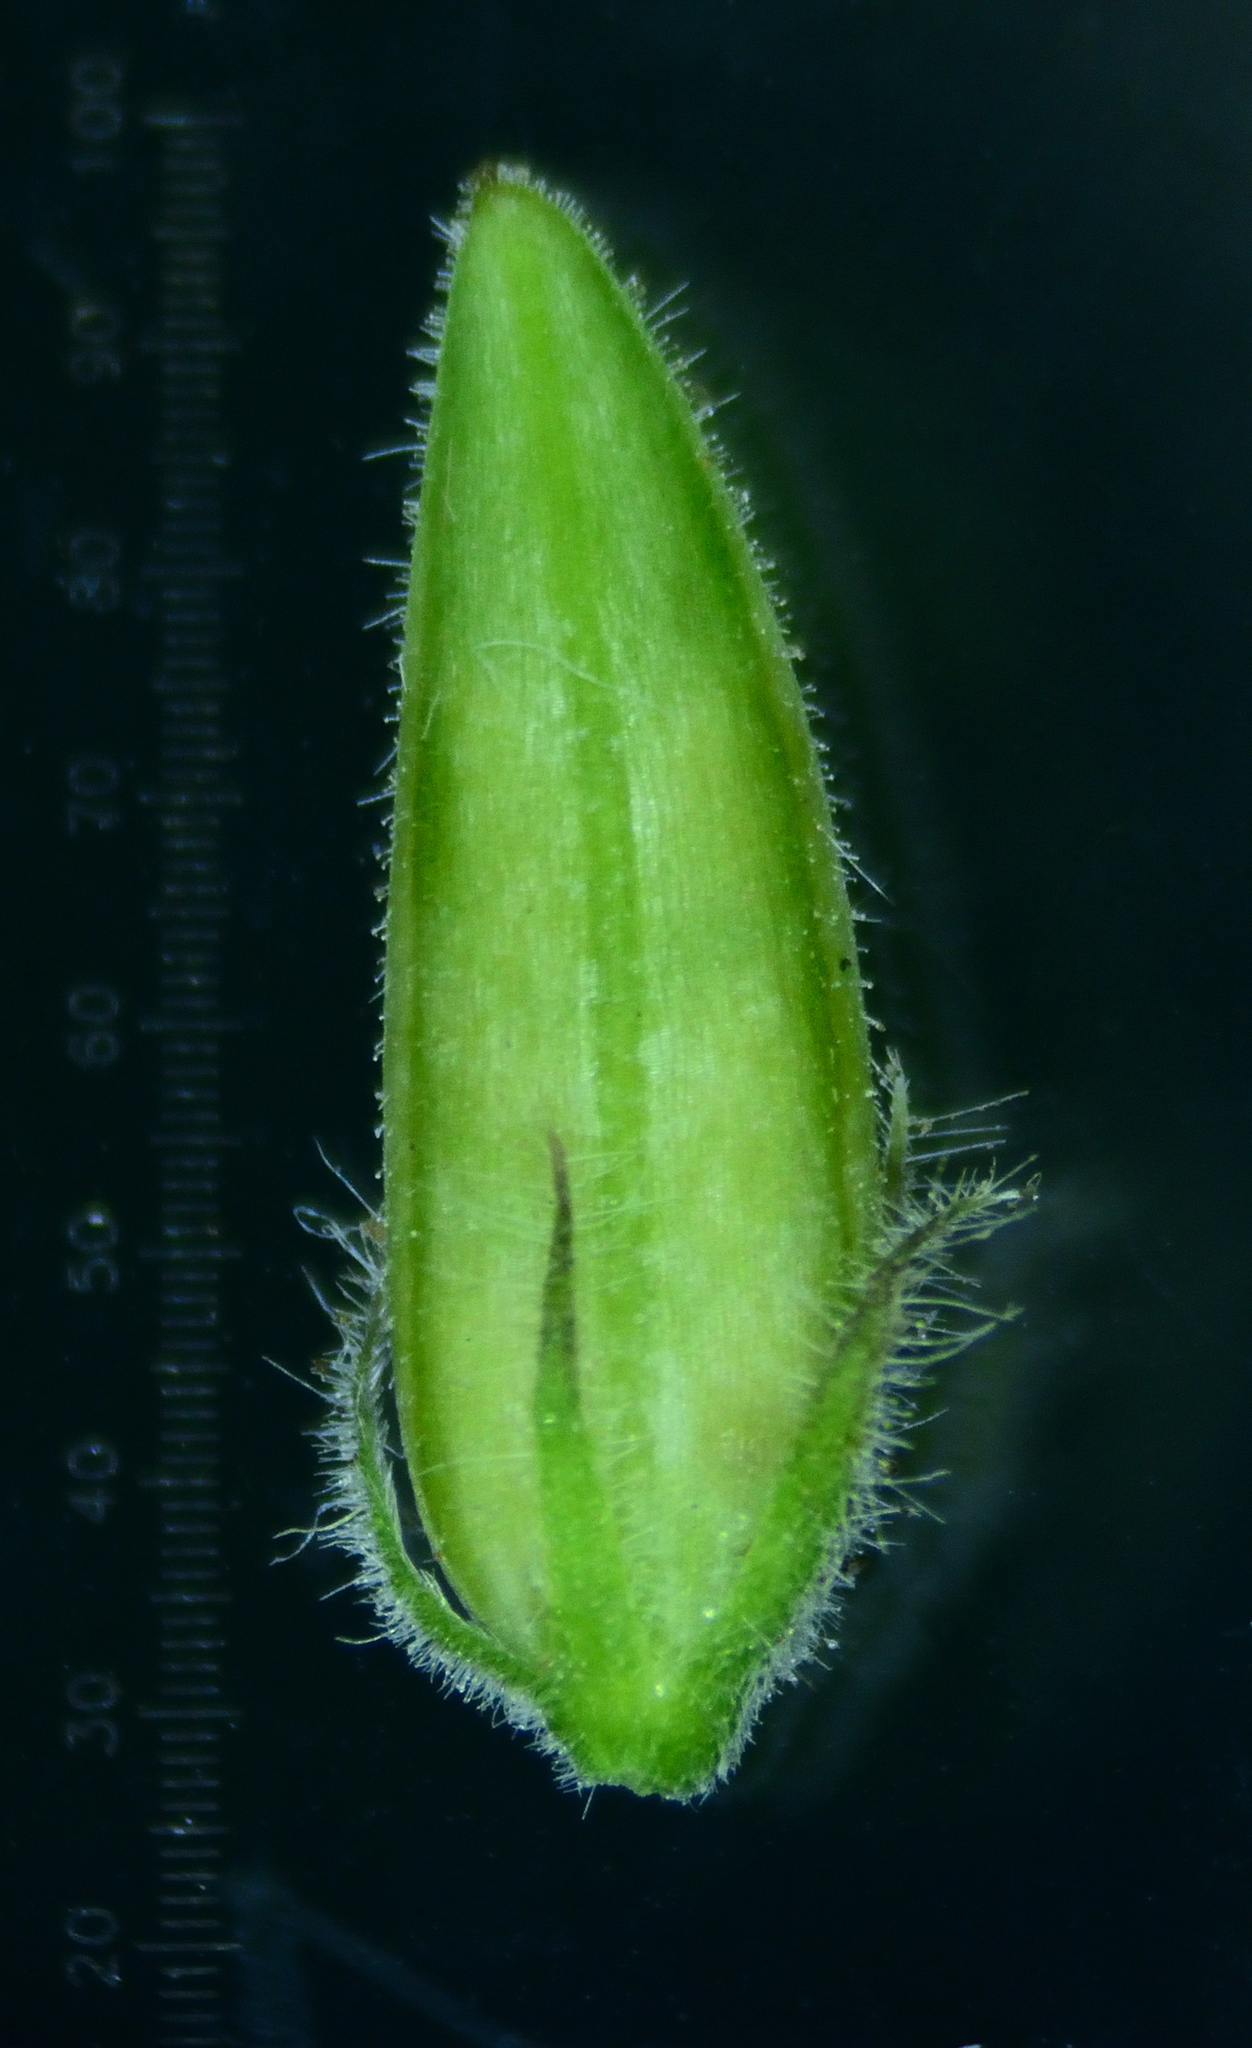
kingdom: Plantae
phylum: Tracheophyta
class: Magnoliopsida
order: Lamiales
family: Acanthaceae
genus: Haplanthodes
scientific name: Haplanthodes tentaculatus
